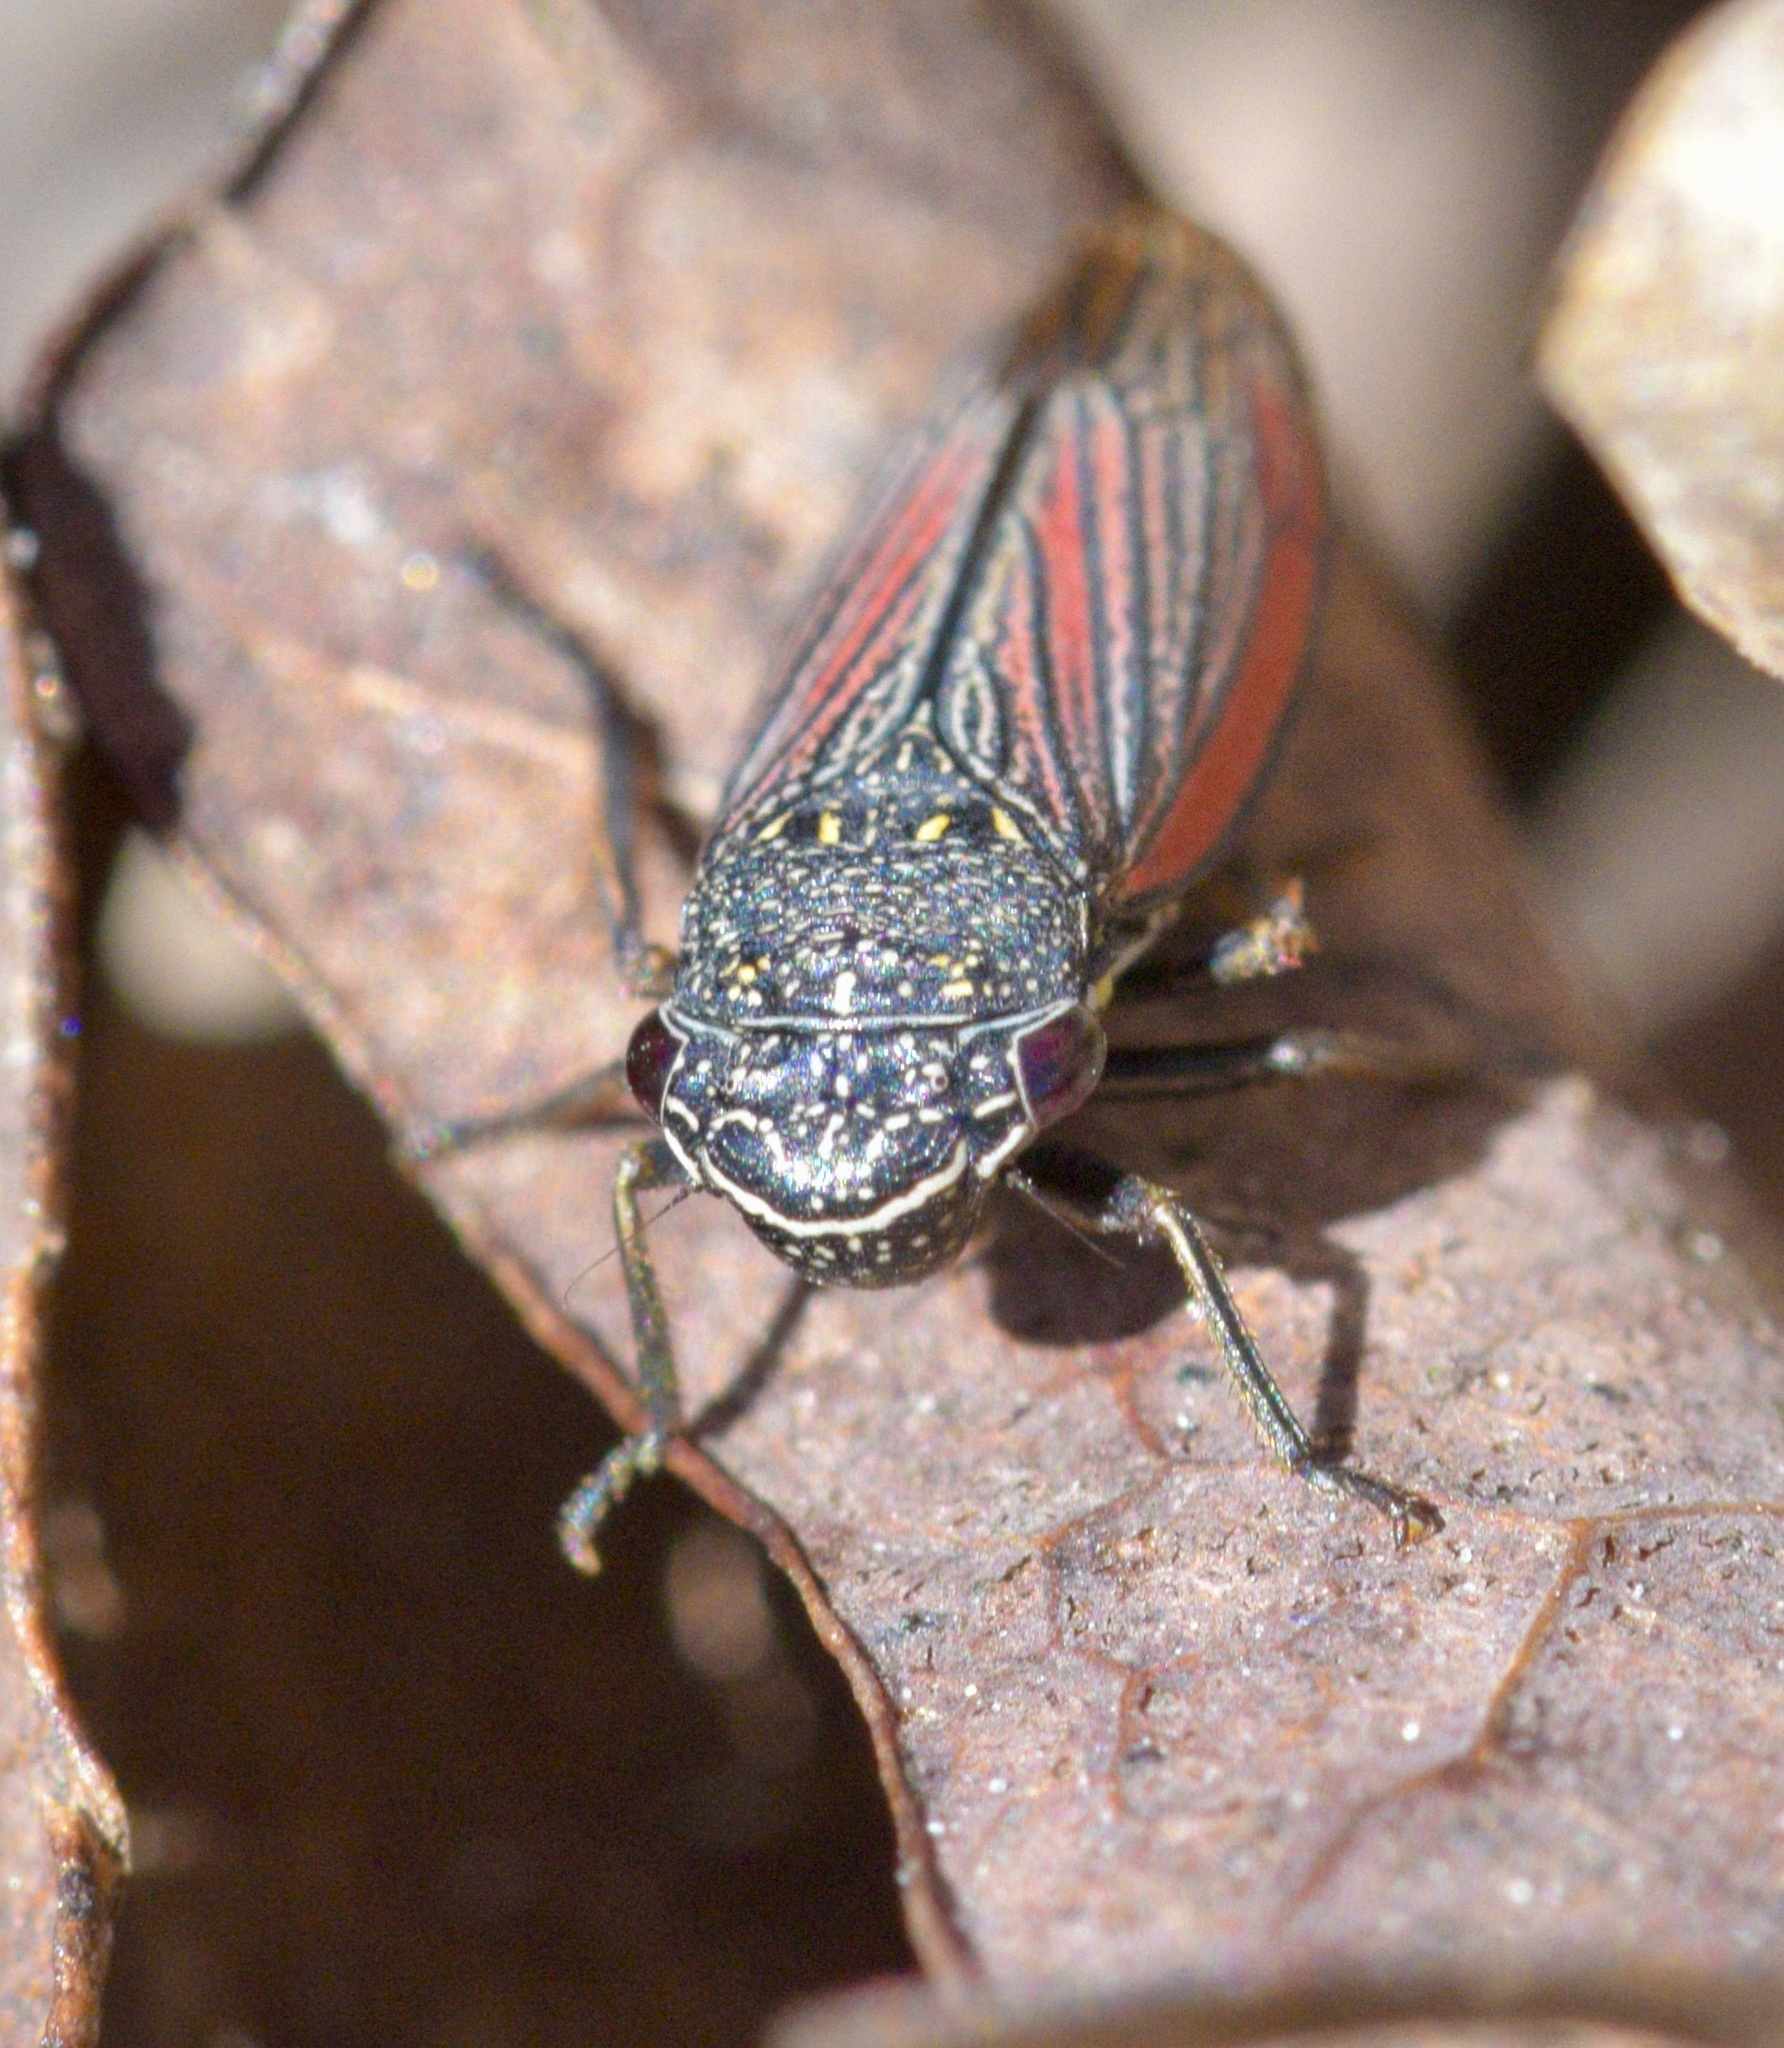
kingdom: Animalia
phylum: Arthropoda
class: Insecta
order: Hemiptera
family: Cicadellidae
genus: Cuerna
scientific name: Cuerna striata
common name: Striped leafhopper
